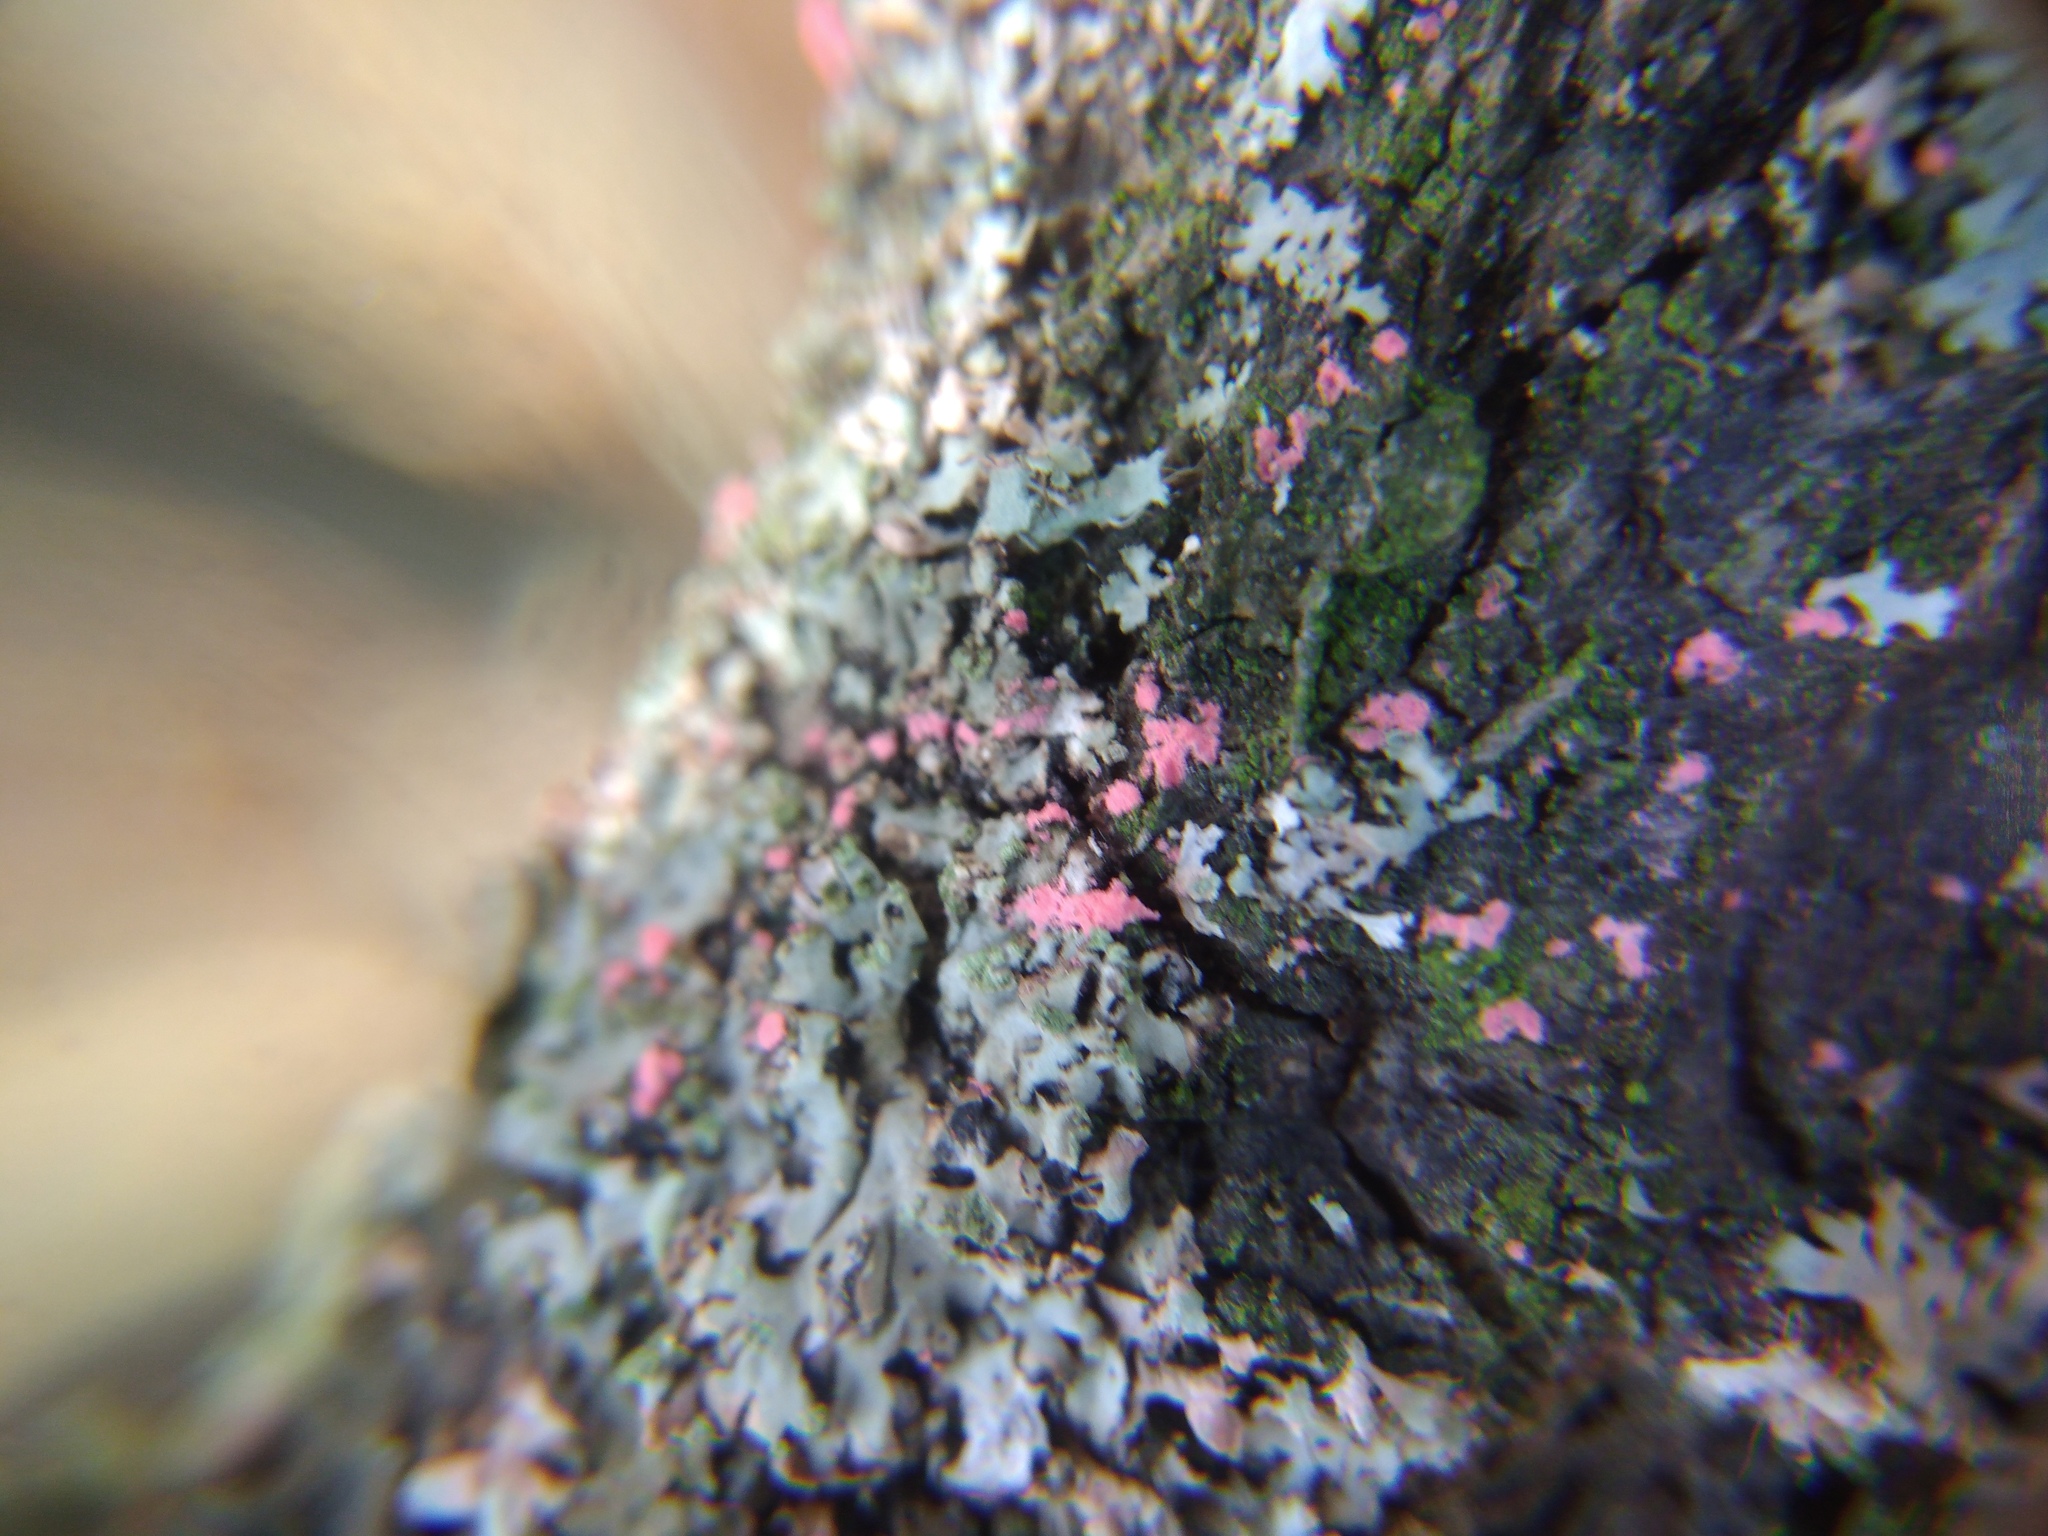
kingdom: Fungi
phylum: Ascomycota
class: Sordariomycetes
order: Hypocreales
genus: Illosporiopsis
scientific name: Illosporiopsis christiansenii
